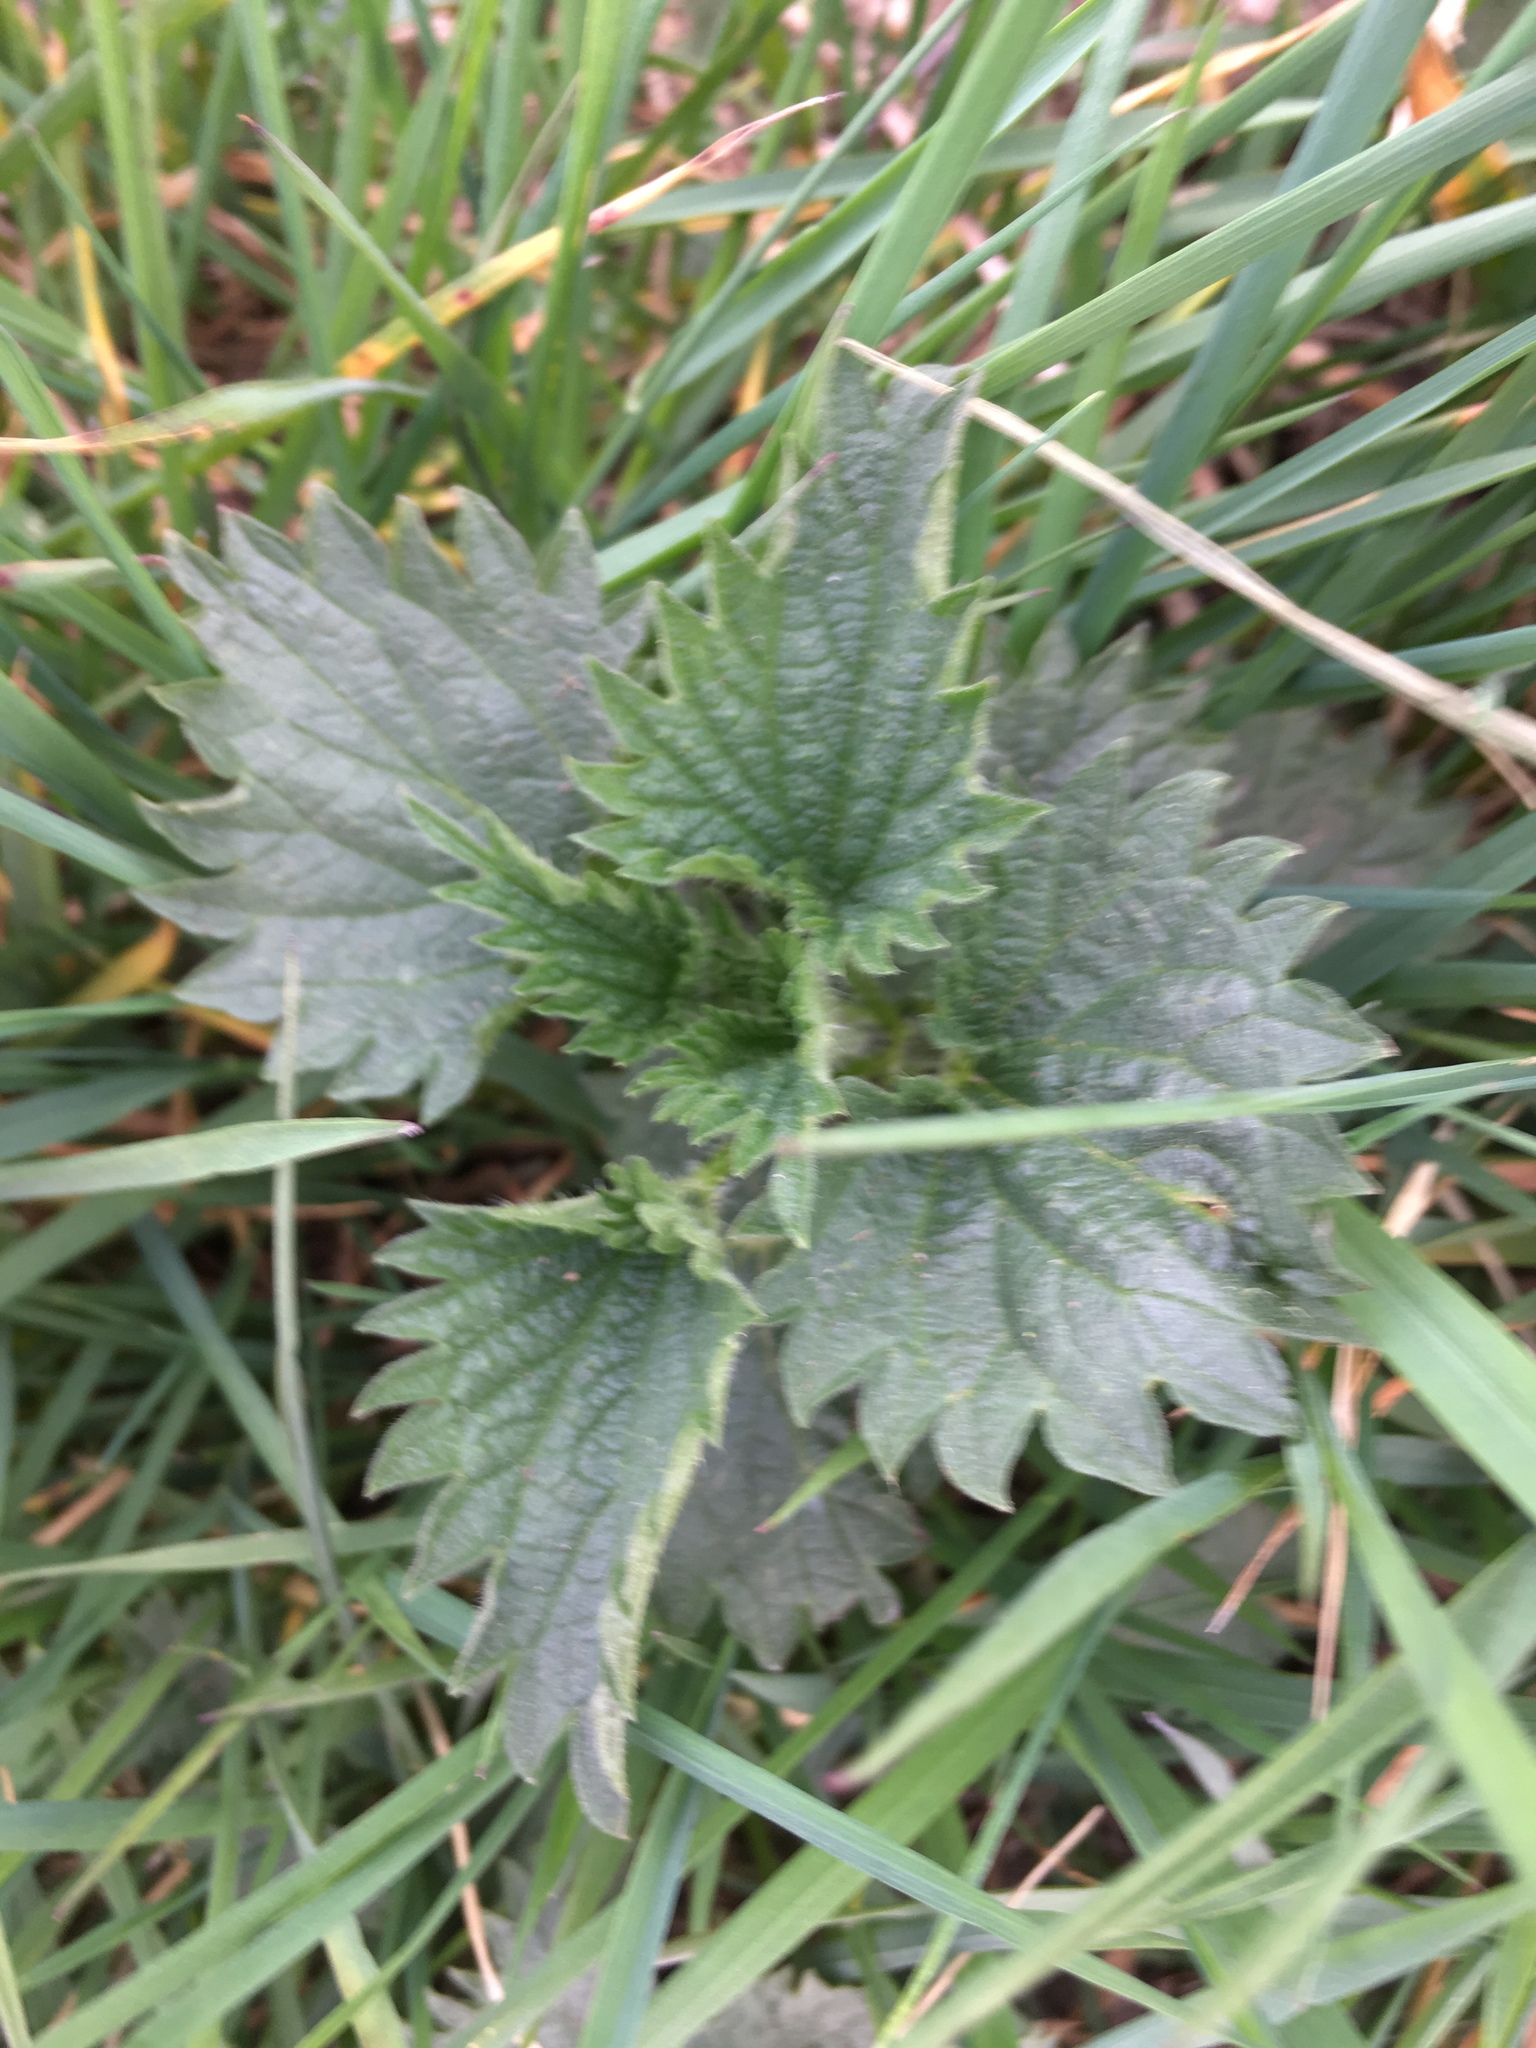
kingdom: Plantae
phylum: Tracheophyta
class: Magnoliopsida
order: Rosales
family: Urticaceae
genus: Urtica
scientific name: Urtica dioica
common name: Common nettle
